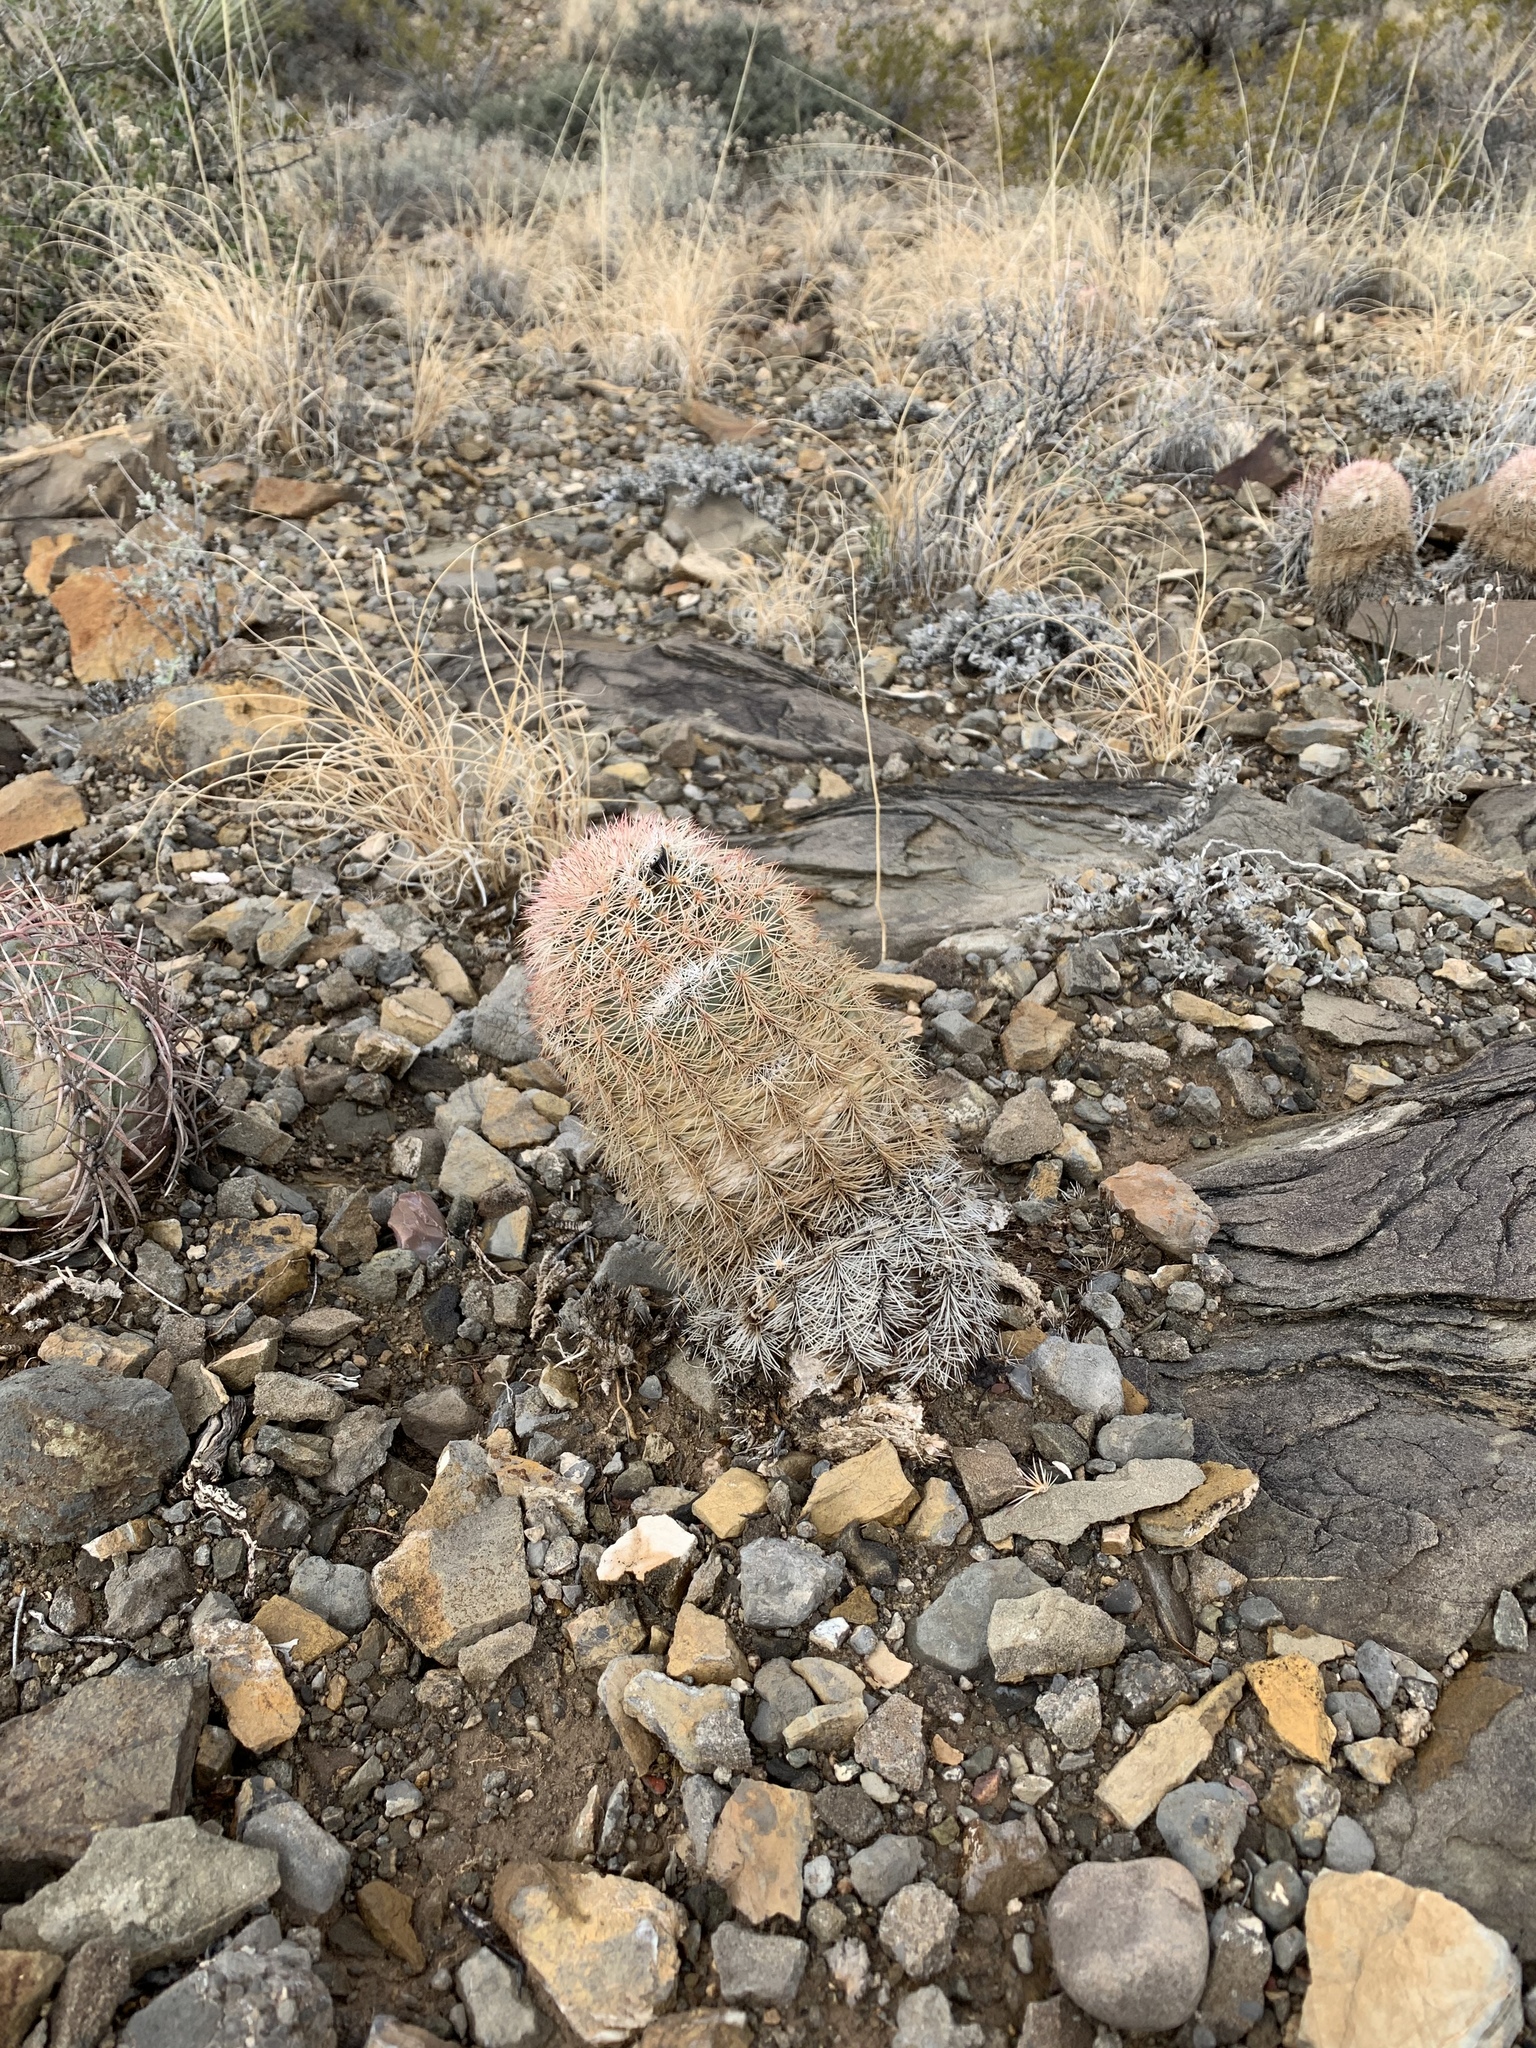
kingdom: Plantae
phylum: Tracheophyta
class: Magnoliopsida
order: Caryophyllales
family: Cactaceae
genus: Echinocereus
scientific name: Echinocereus dasyacanthus
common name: Spiny hedgehog cactus
